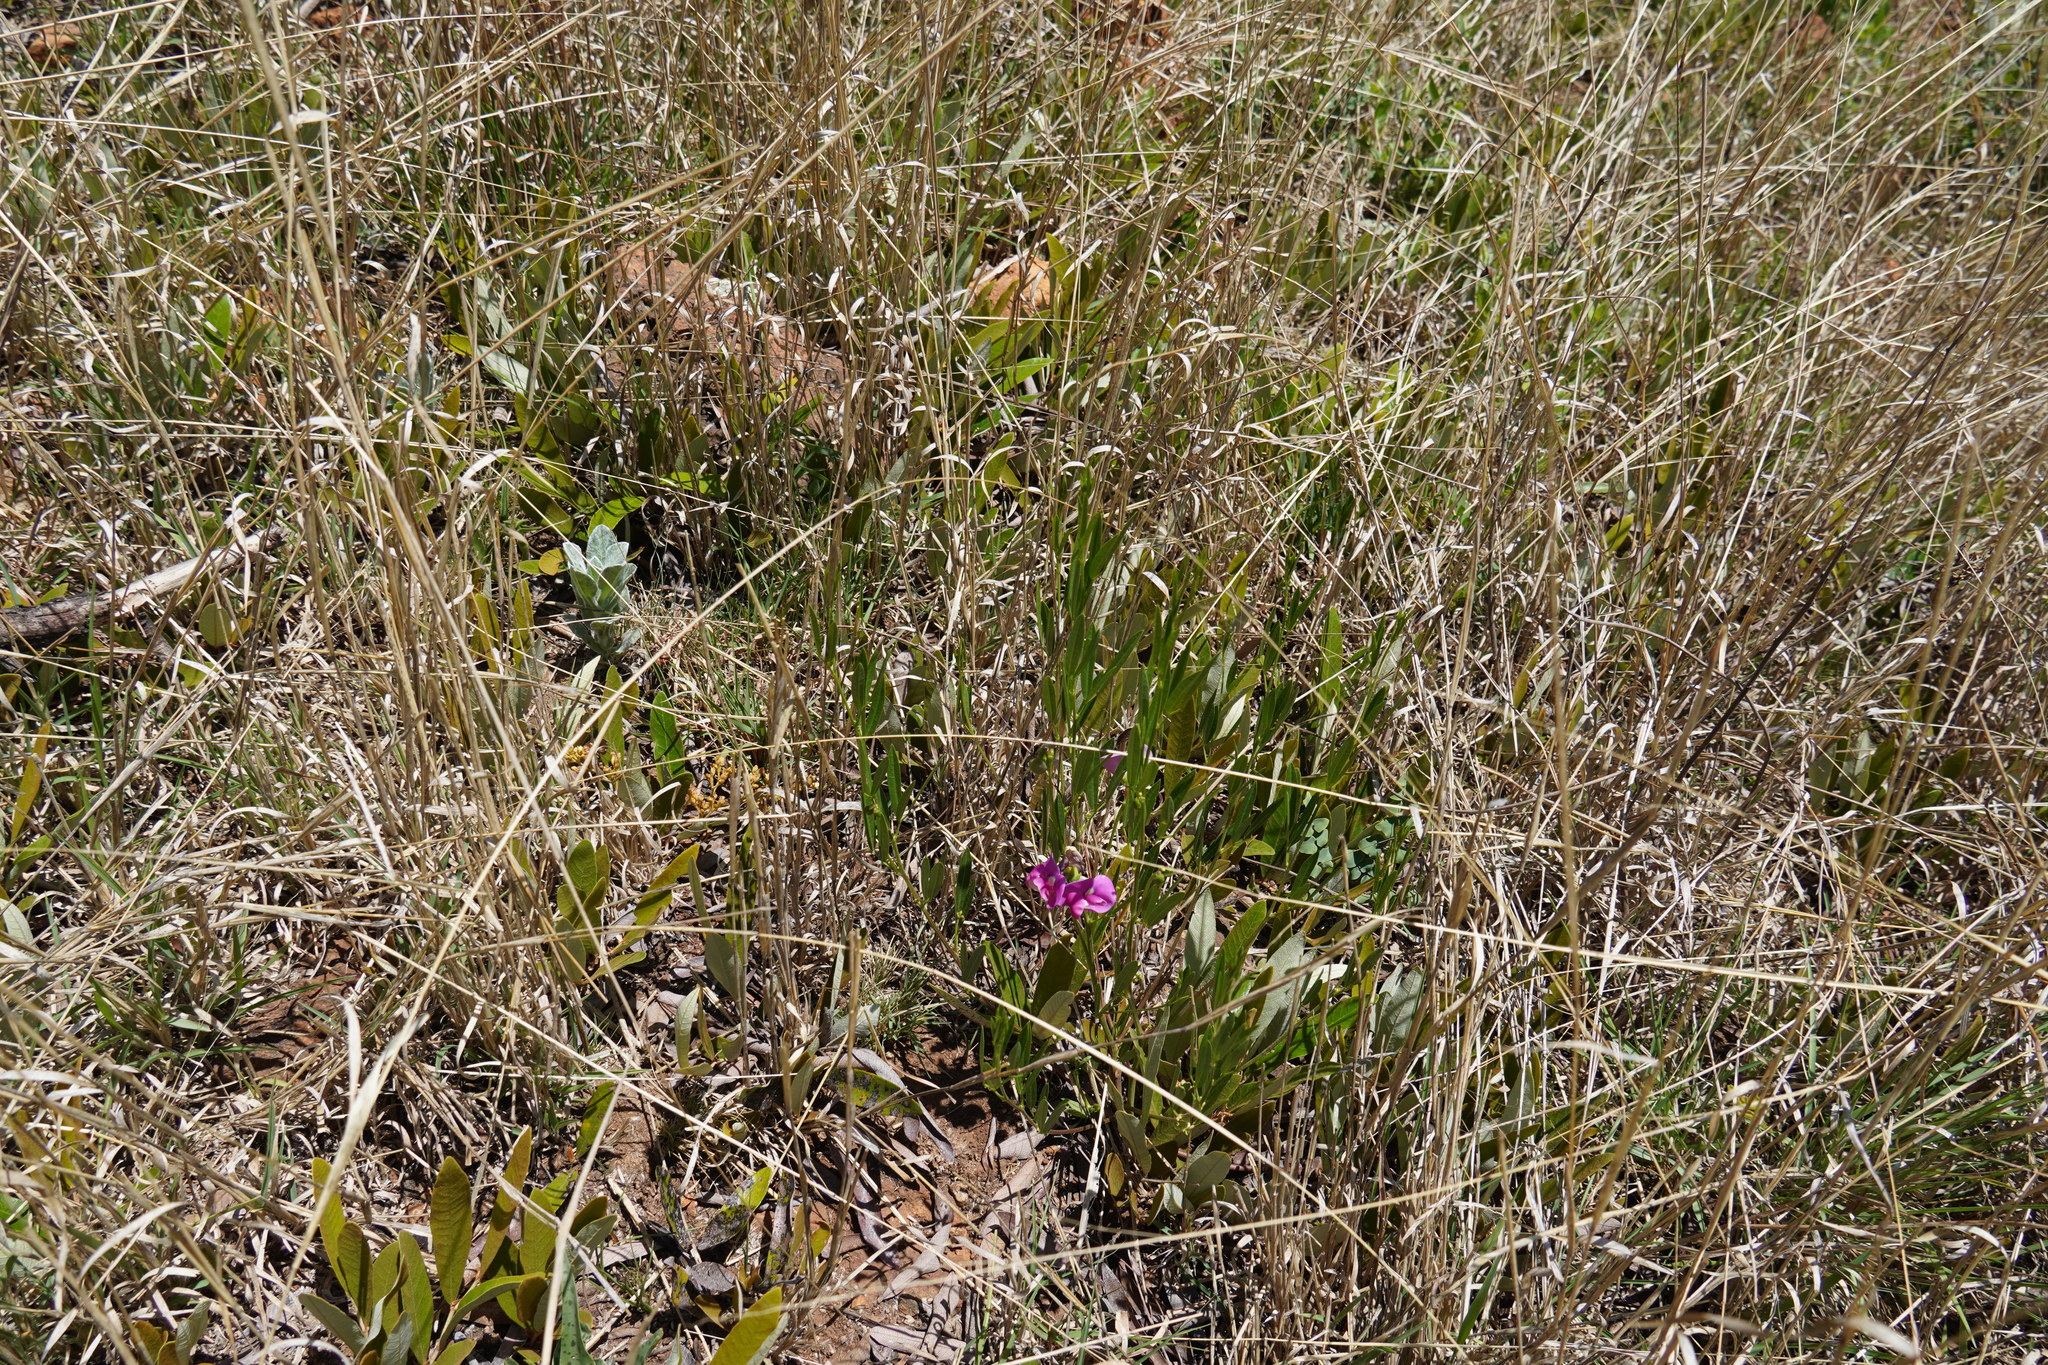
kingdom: Plantae
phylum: Tracheophyta
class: Magnoliopsida
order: Fabales
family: Fabaceae
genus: Sphenostylis
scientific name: Sphenostylis angustifolia
